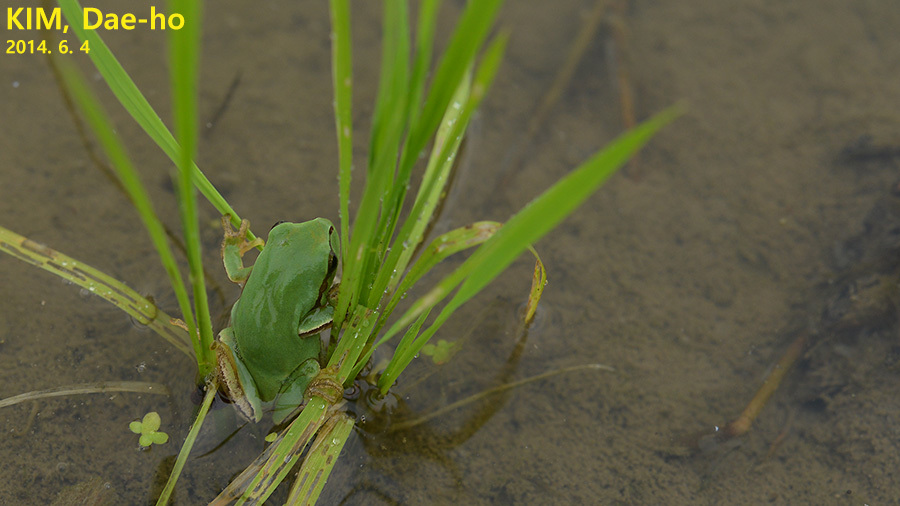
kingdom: Animalia
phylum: Chordata
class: Amphibia
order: Anura
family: Hylidae
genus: Dryophytes
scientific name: Dryophytes immaculatus
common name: North china treefrog
